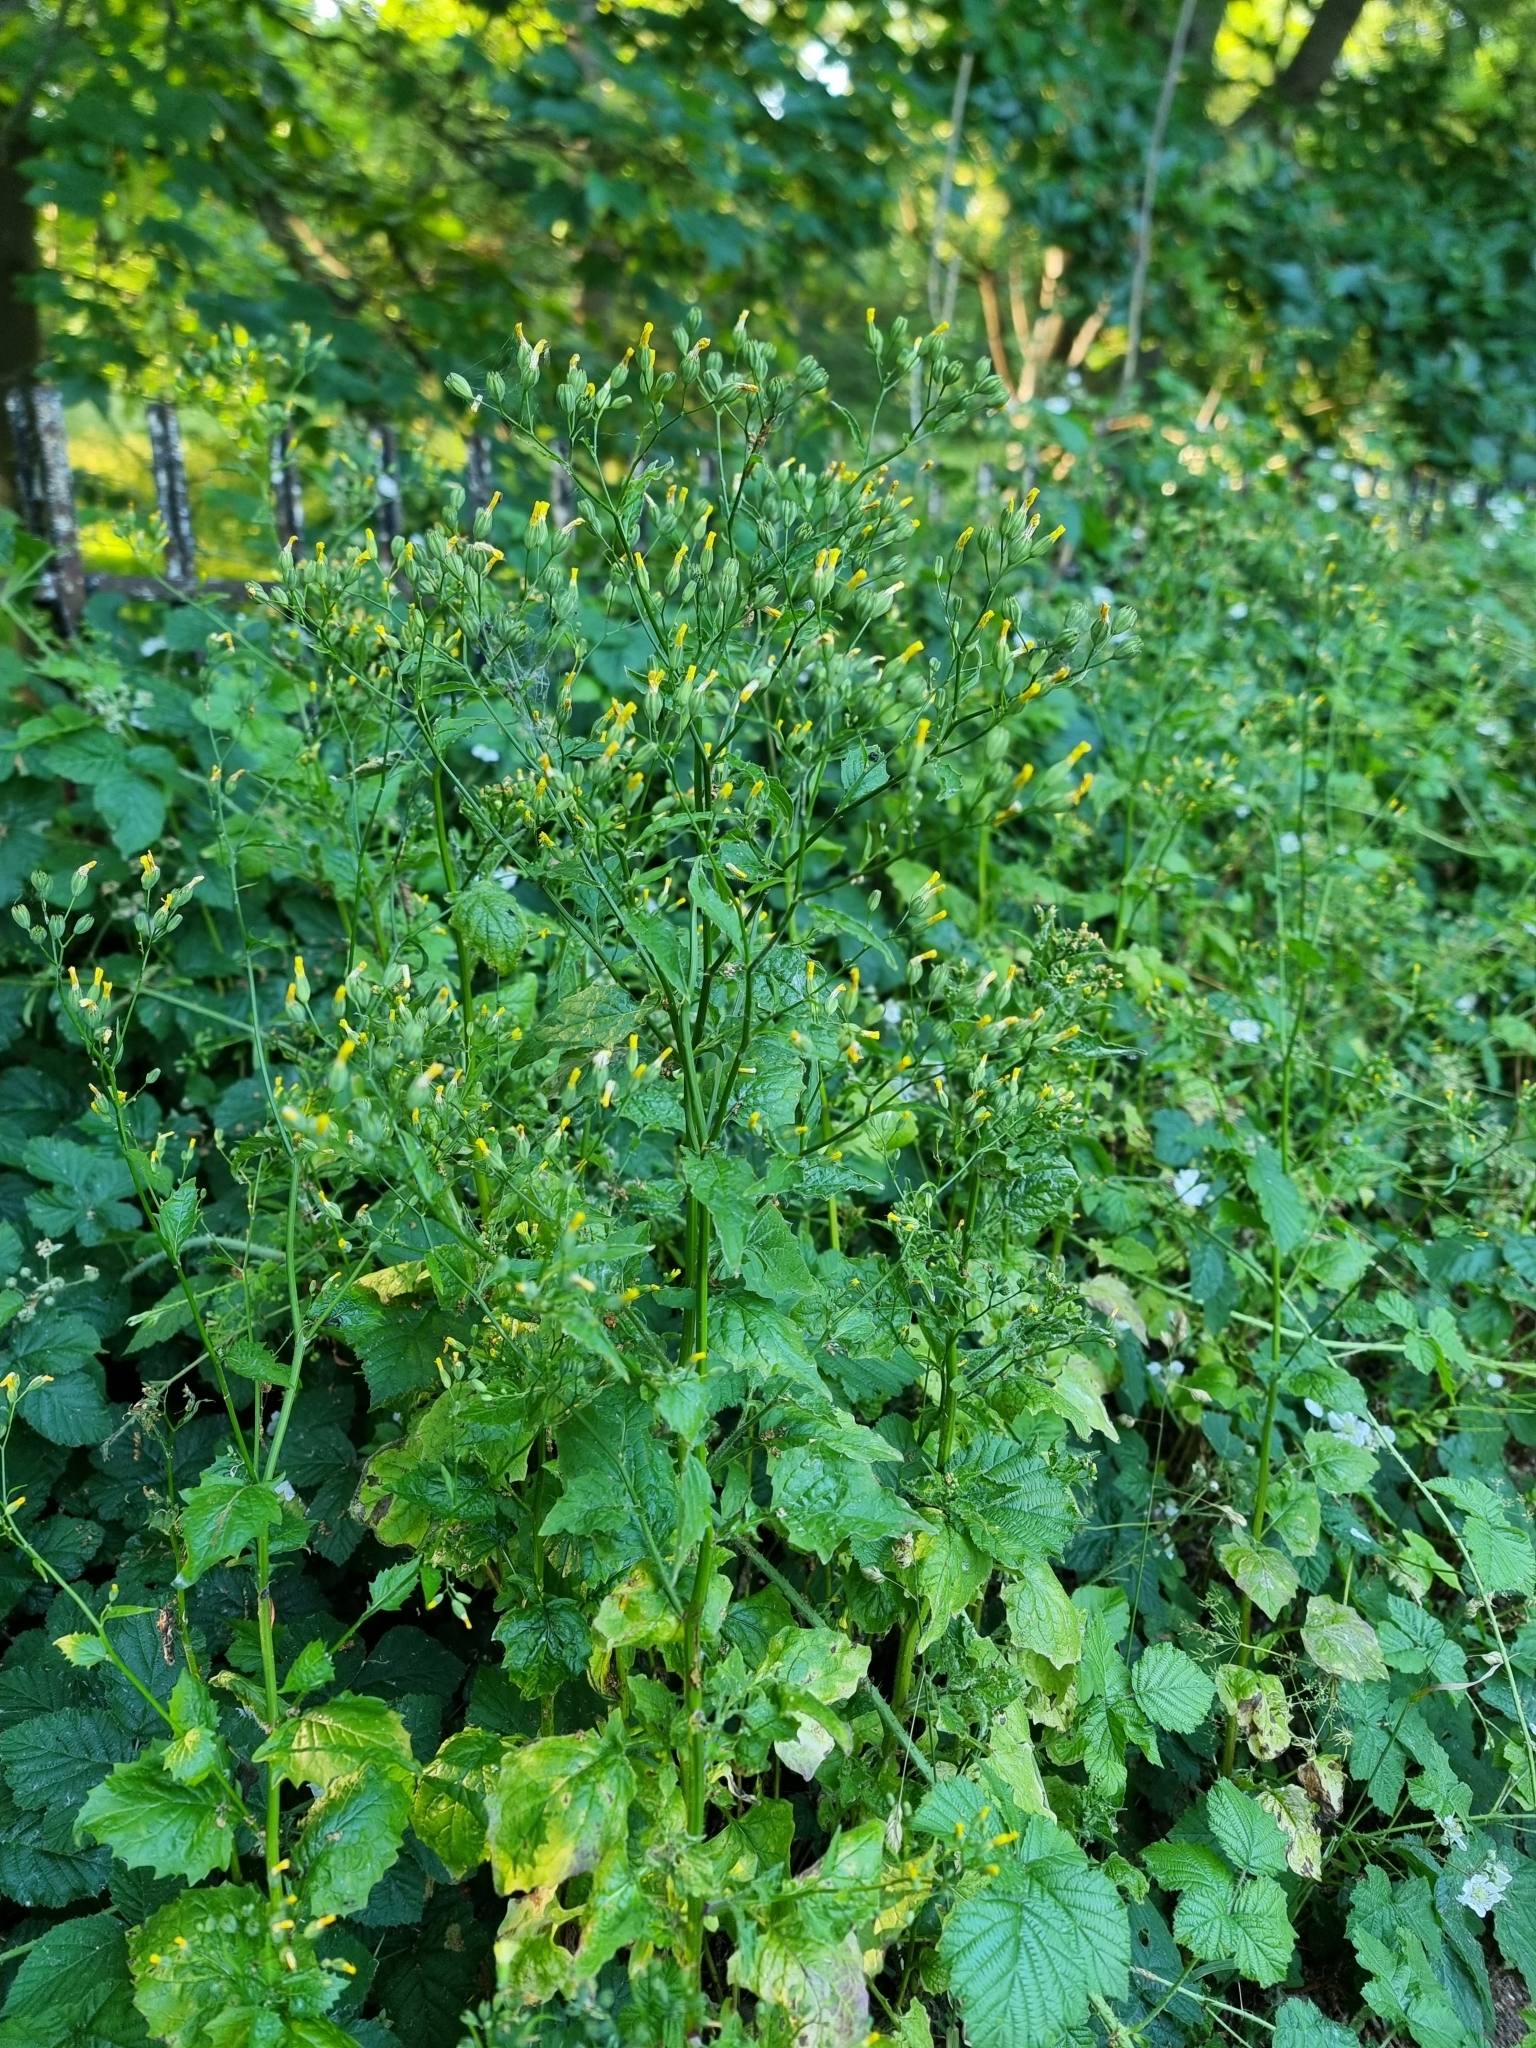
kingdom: Plantae
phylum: Tracheophyta
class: Magnoliopsida
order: Asterales
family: Asteraceae
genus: Lapsana
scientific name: Lapsana communis
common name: Nipplewort
